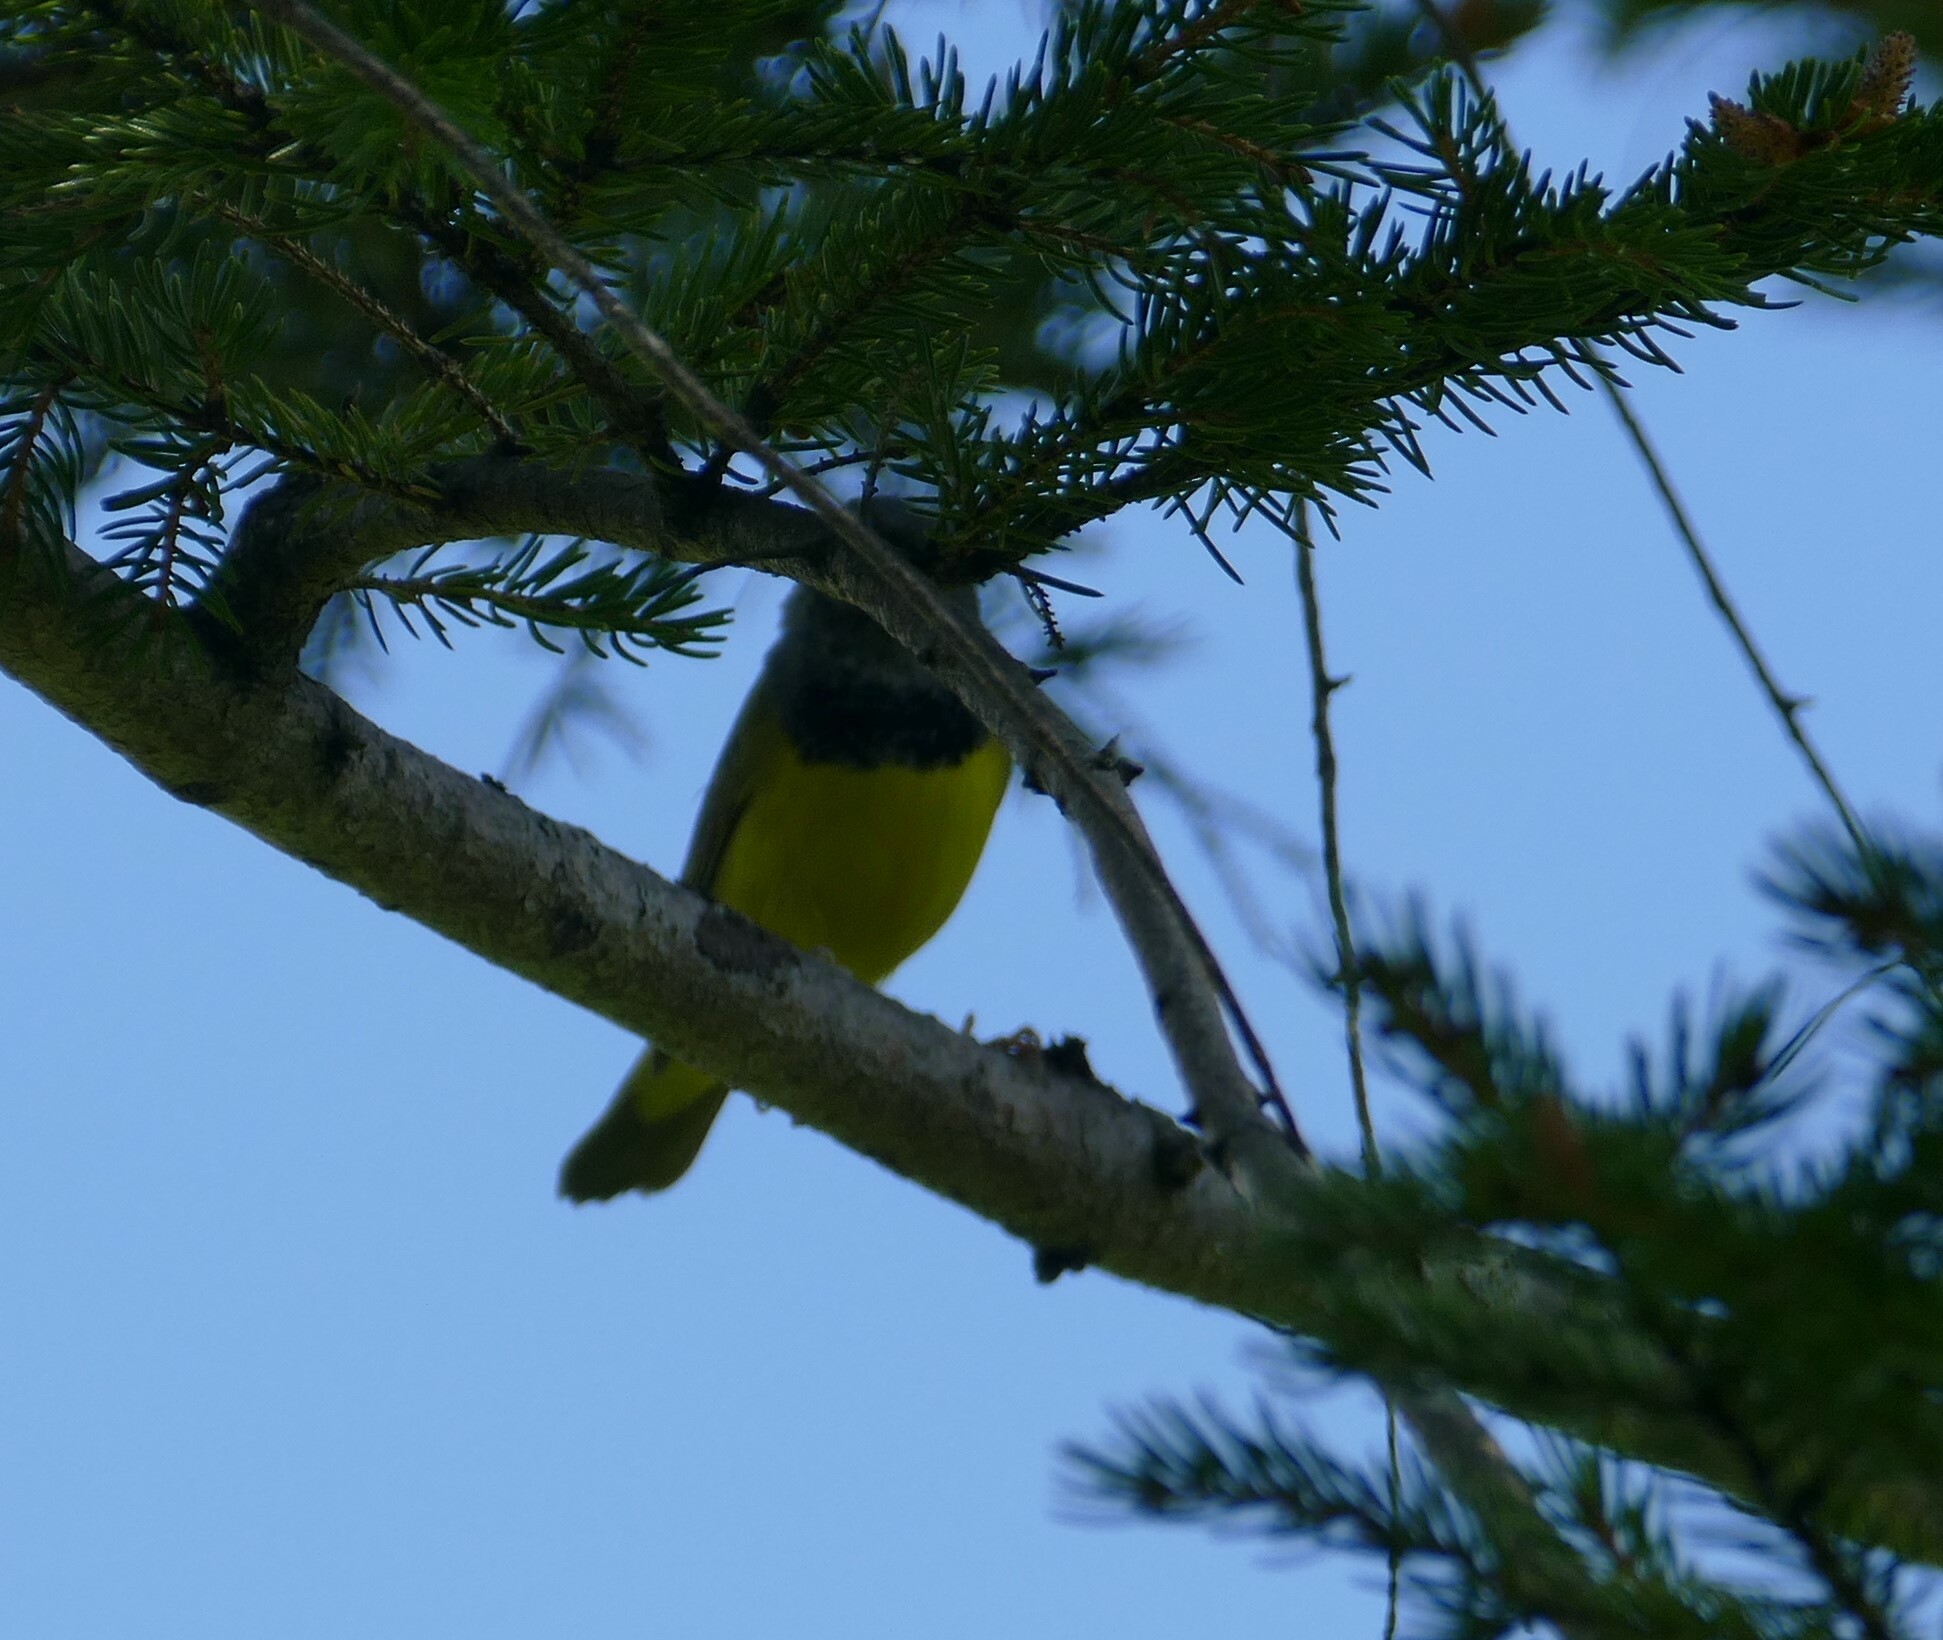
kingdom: Animalia
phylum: Chordata
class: Aves
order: Passeriformes
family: Parulidae
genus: Geothlypis
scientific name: Geothlypis philadelphia
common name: Mourning warbler
